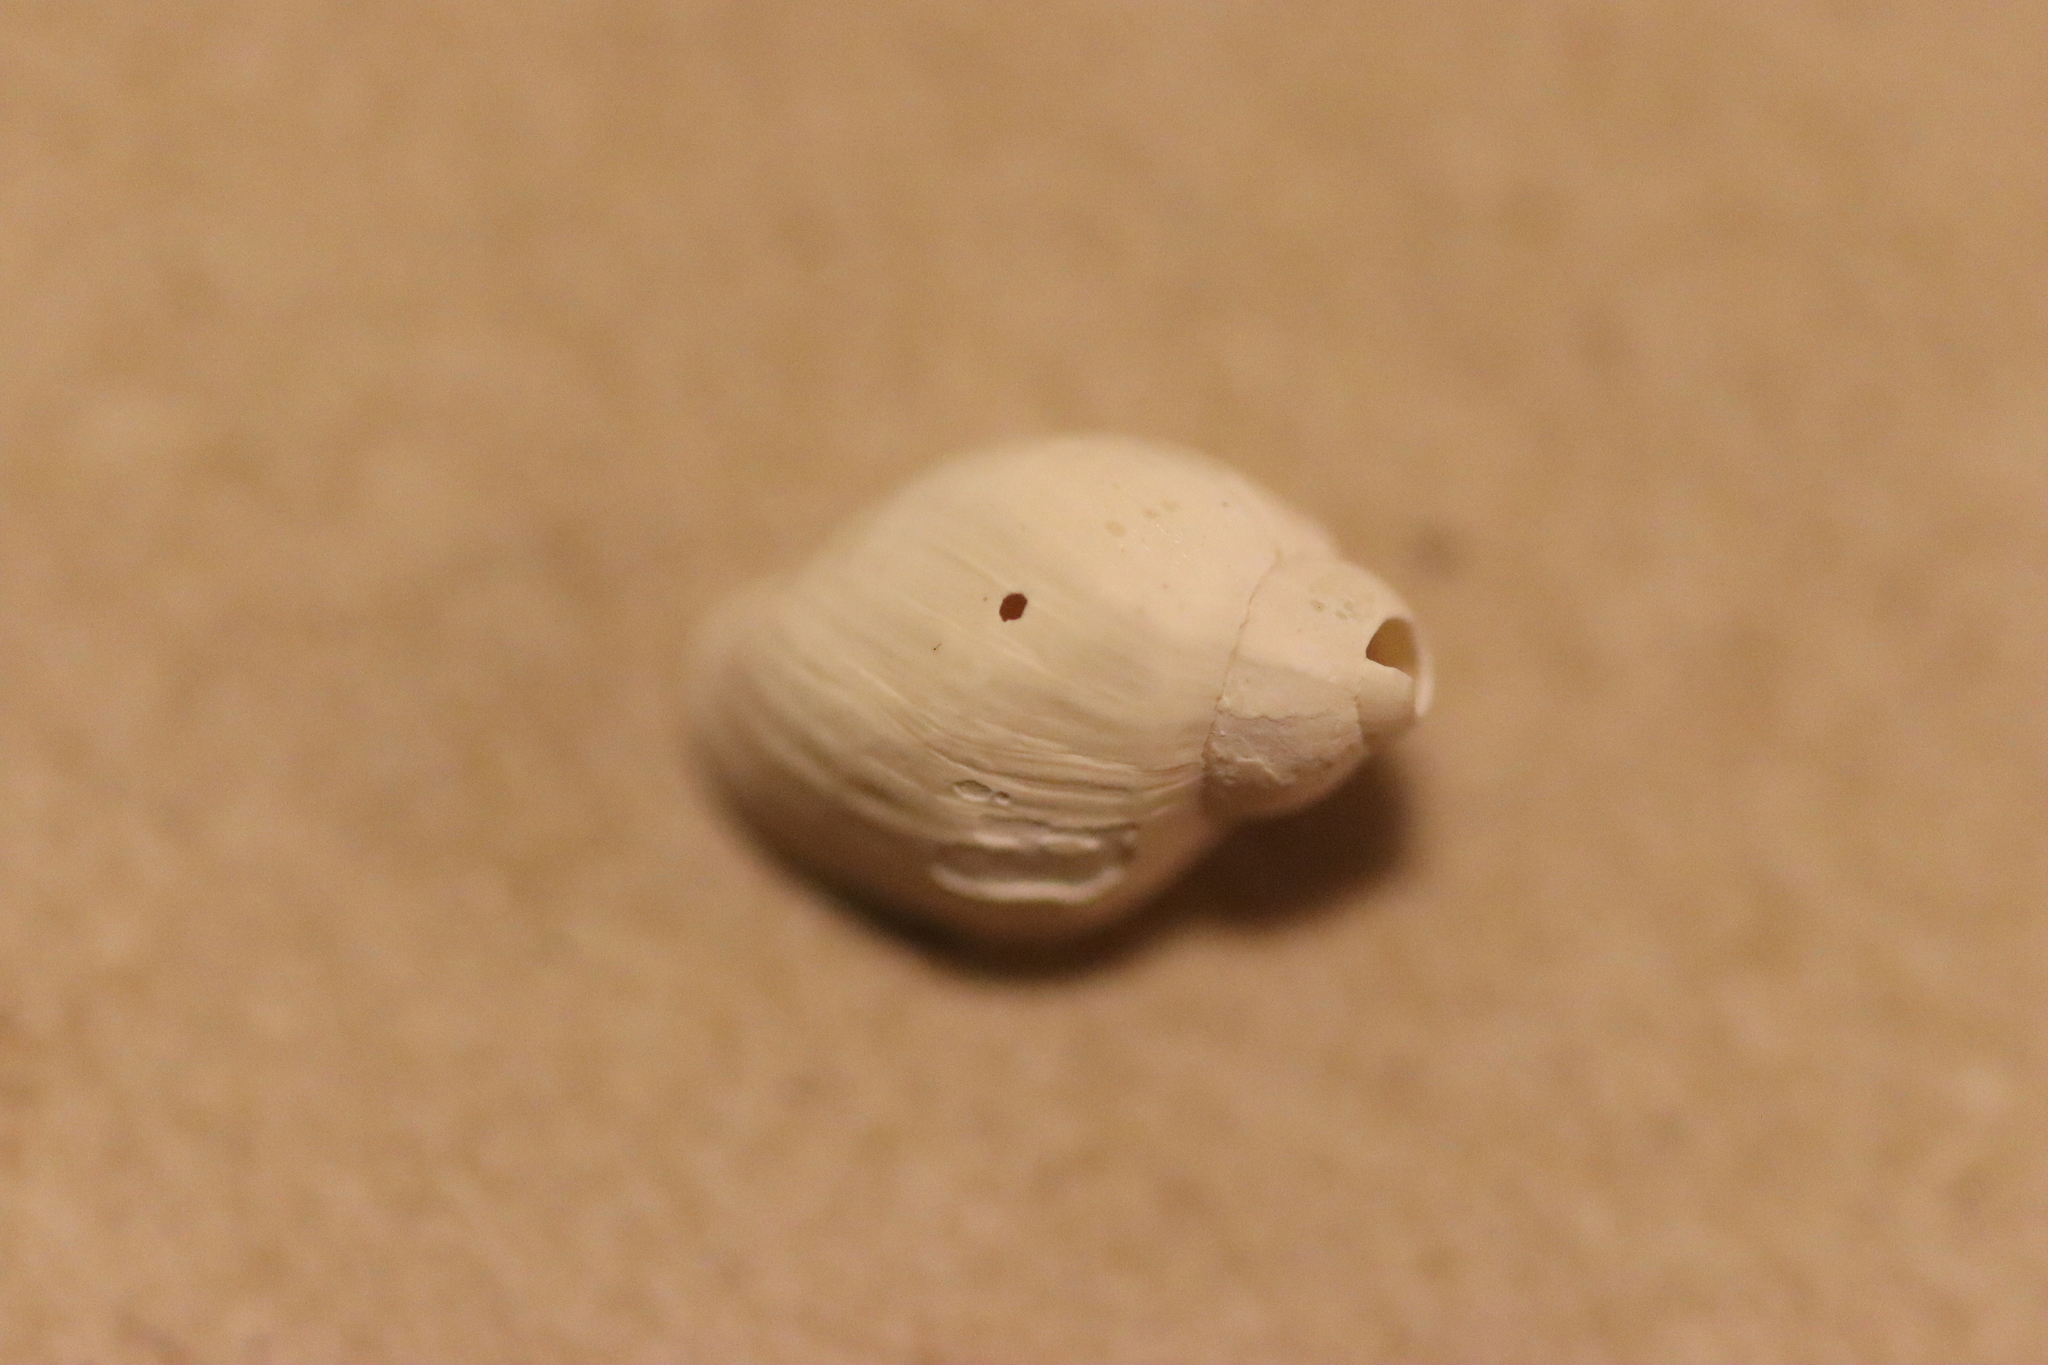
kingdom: Animalia
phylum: Mollusca
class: Gastropoda
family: Physidae
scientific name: Physidae
